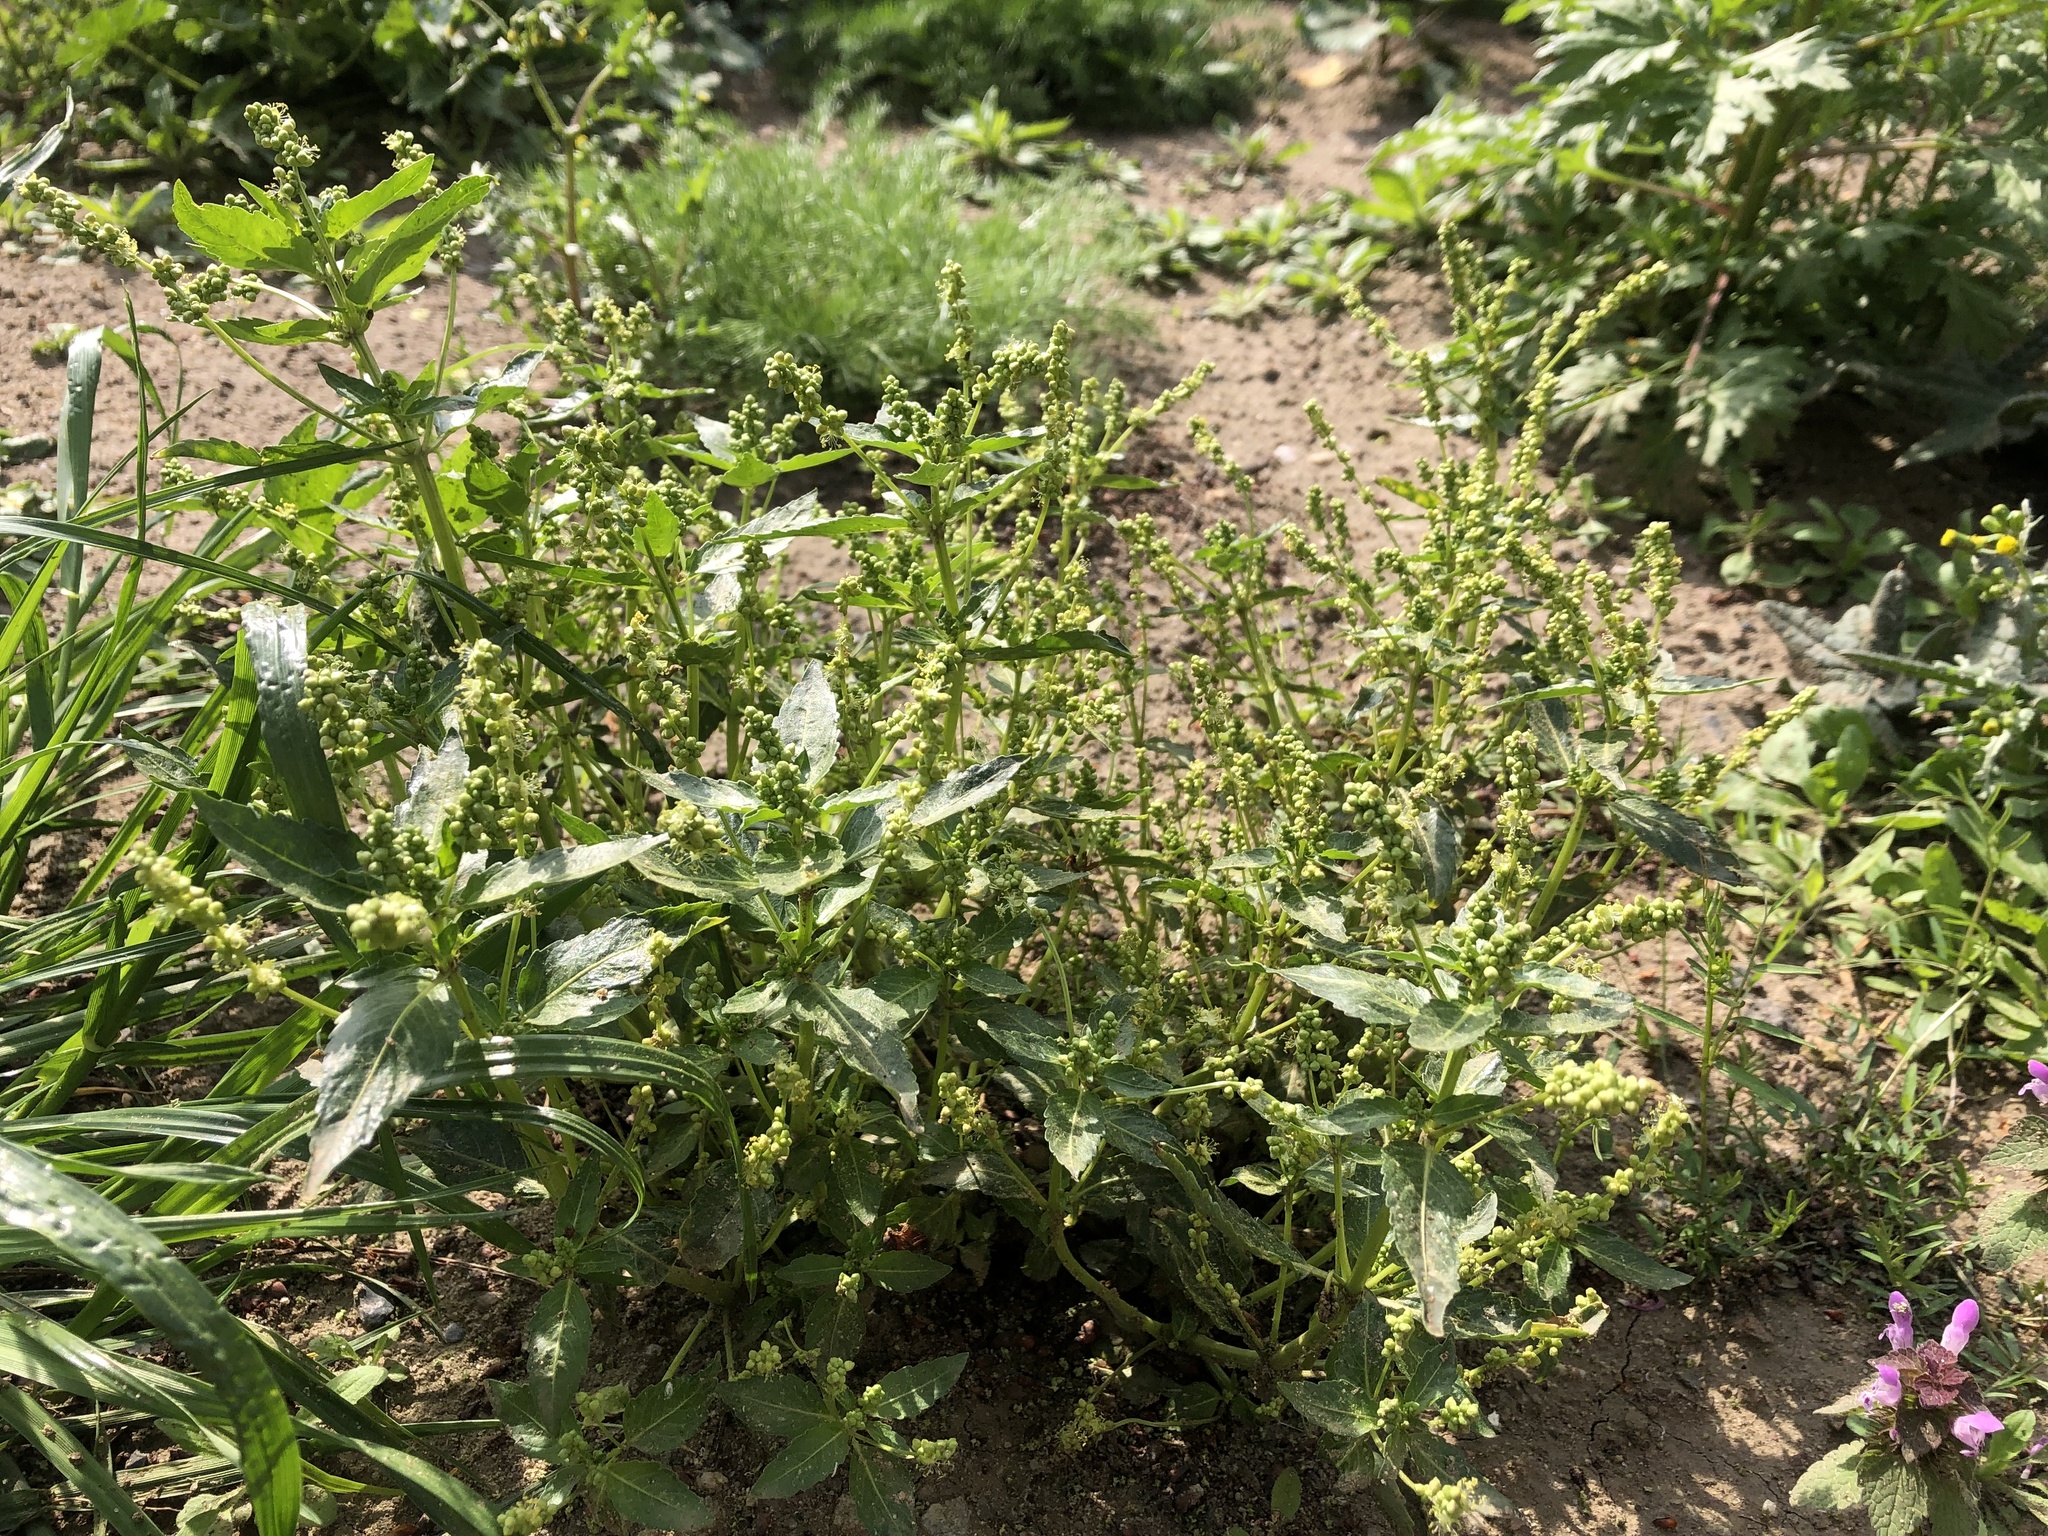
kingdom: Plantae
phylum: Tracheophyta
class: Magnoliopsida
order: Malpighiales
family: Euphorbiaceae
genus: Mercurialis
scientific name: Mercurialis annua
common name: Annual mercury
